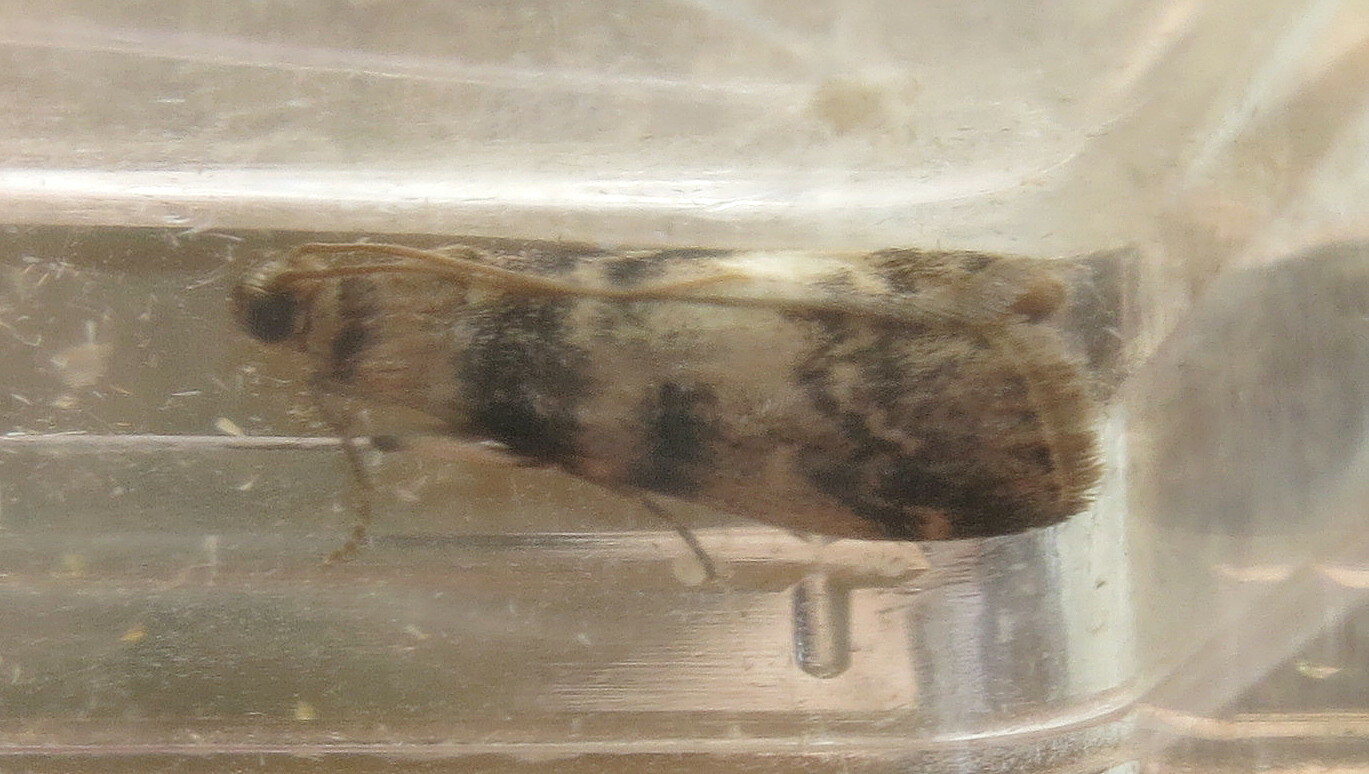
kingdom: Animalia
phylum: Arthropoda
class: Insecta
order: Lepidoptera
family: Pyralidae
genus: Euzophera
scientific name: Euzophera pinguis
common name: Ash-bark knot-horn
